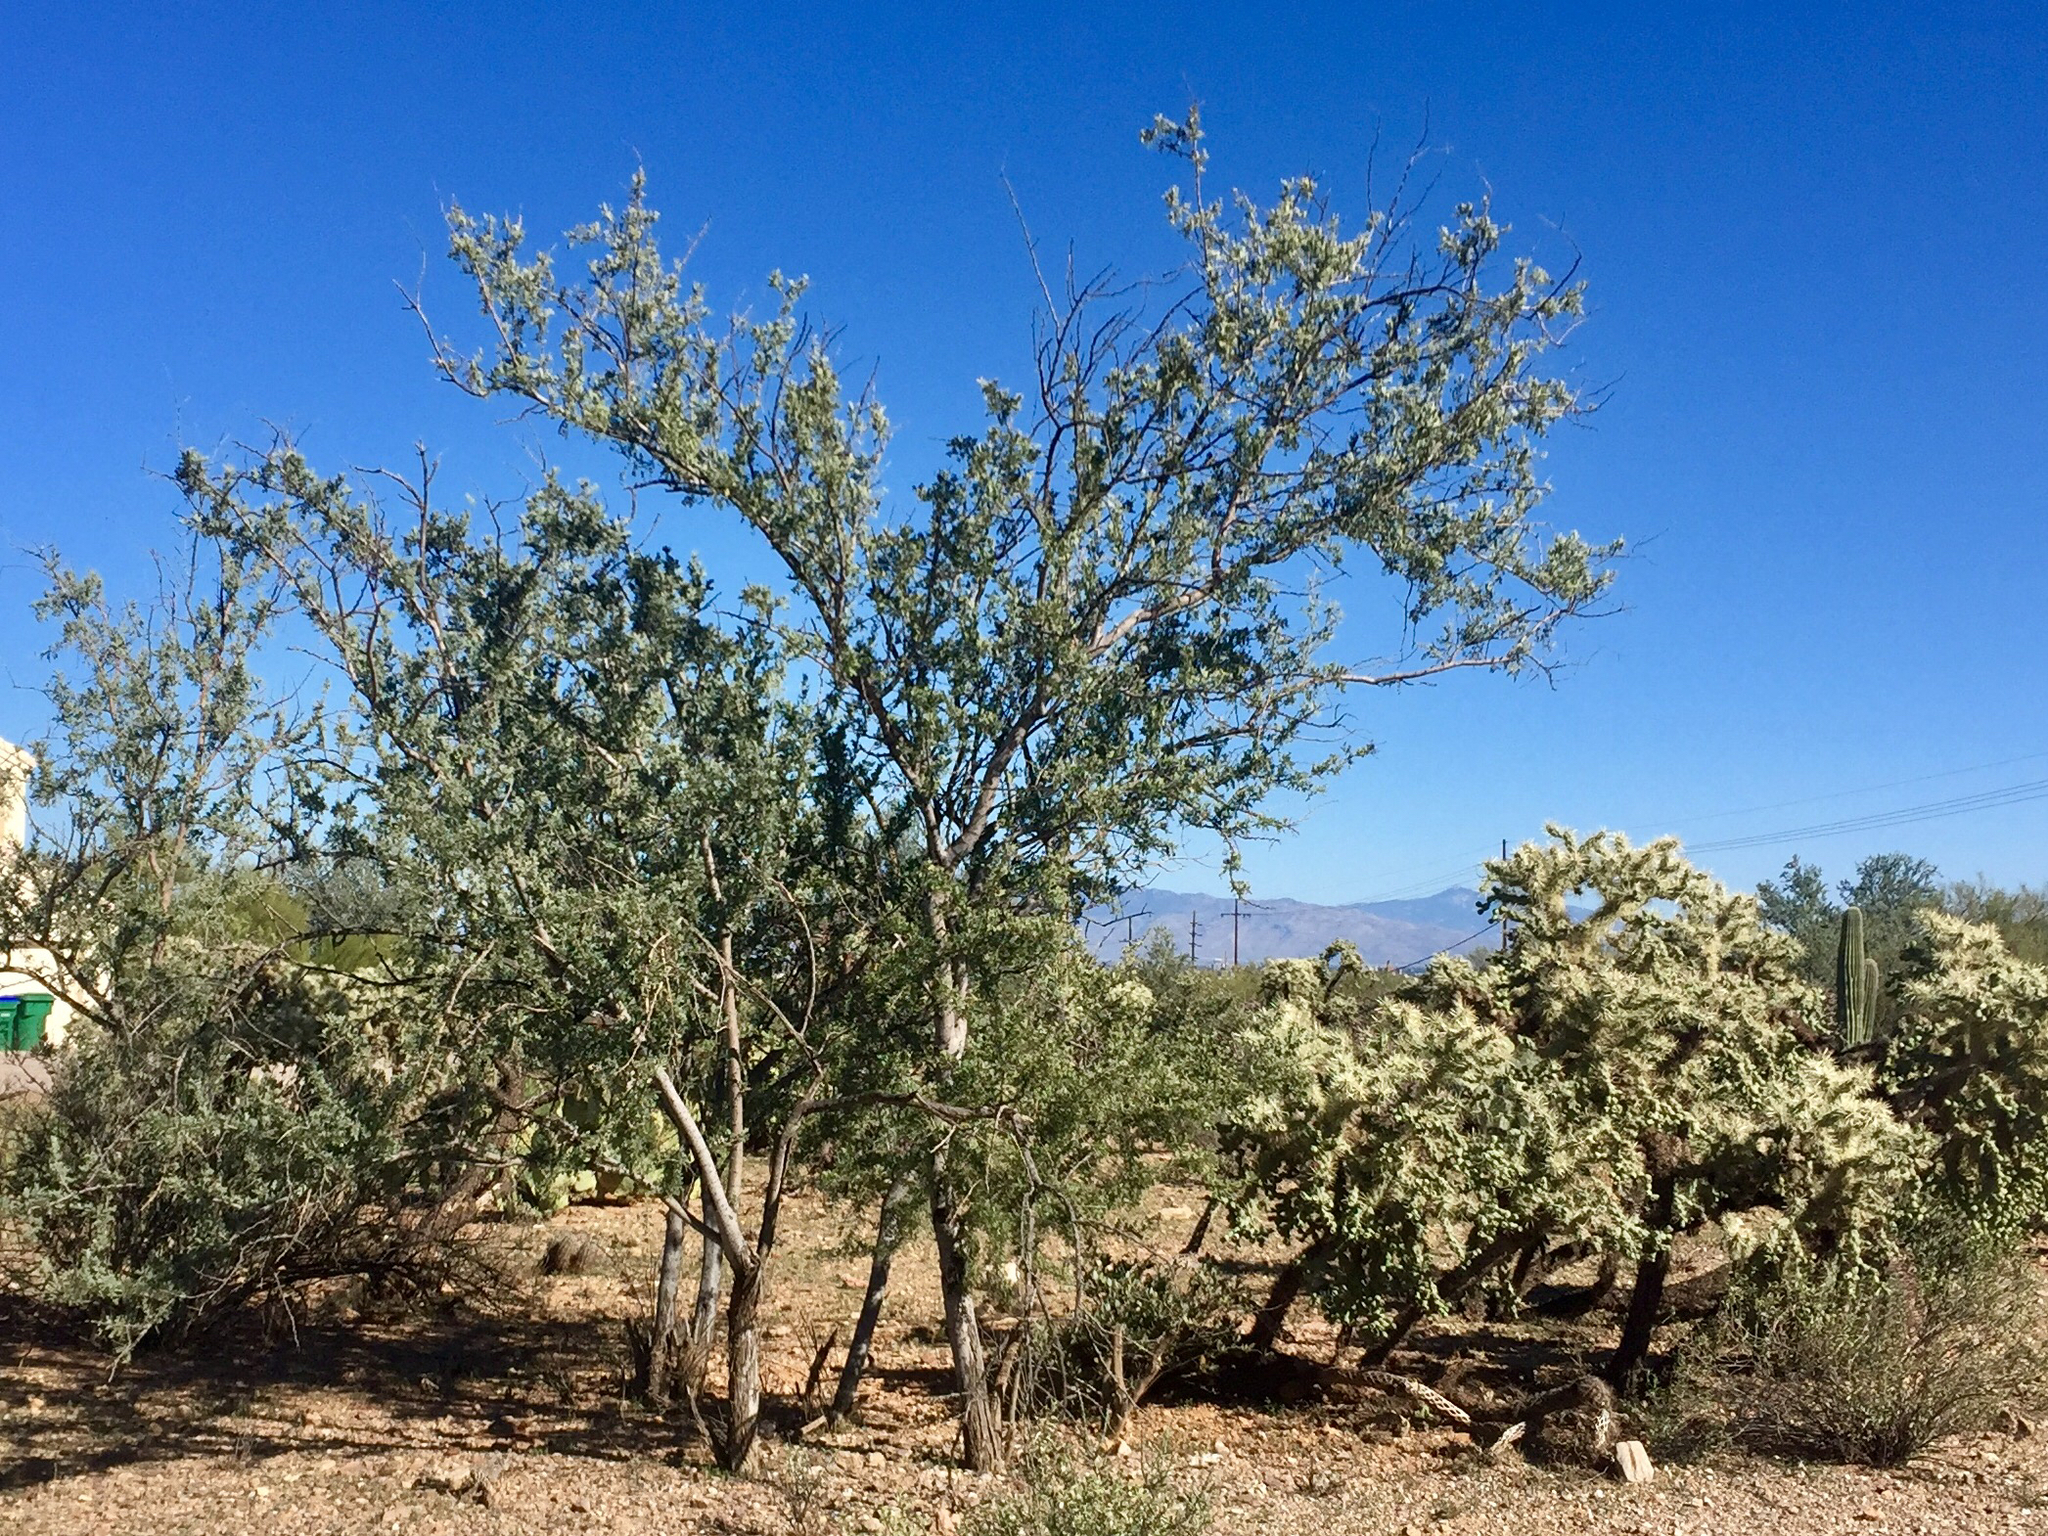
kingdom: Plantae
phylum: Tracheophyta
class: Magnoliopsida
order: Fabales
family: Fabaceae
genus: Olneya
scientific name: Olneya tesota
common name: Desert ironwood
